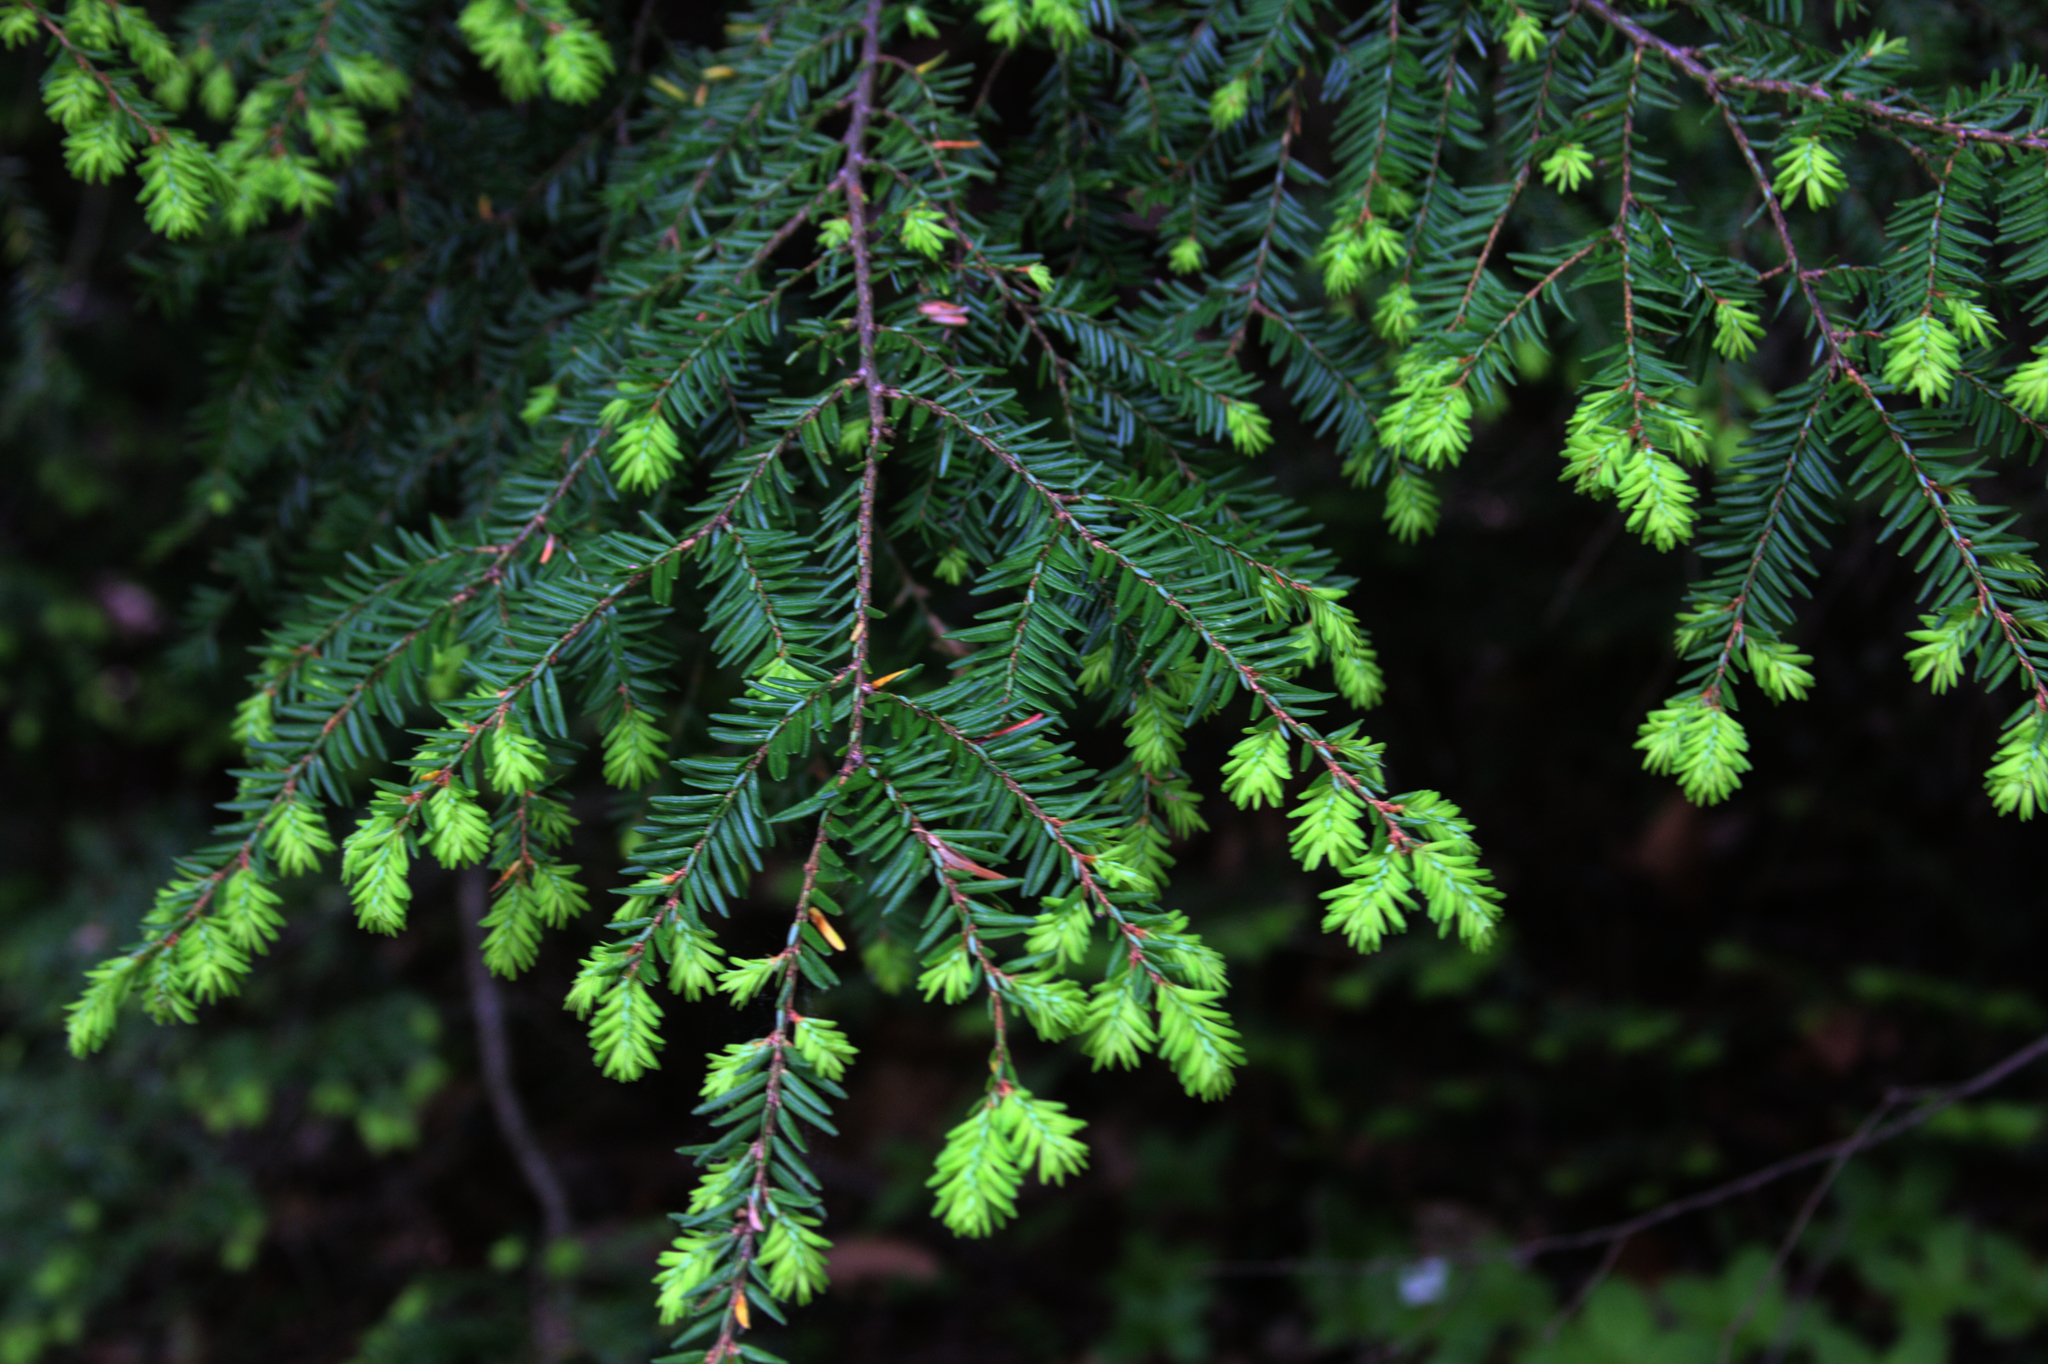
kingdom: Plantae
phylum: Tracheophyta
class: Pinopsida
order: Pinales
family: Pinaceae
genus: Tsuga
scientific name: Tsuga canadensis
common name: Eastern hemlock
